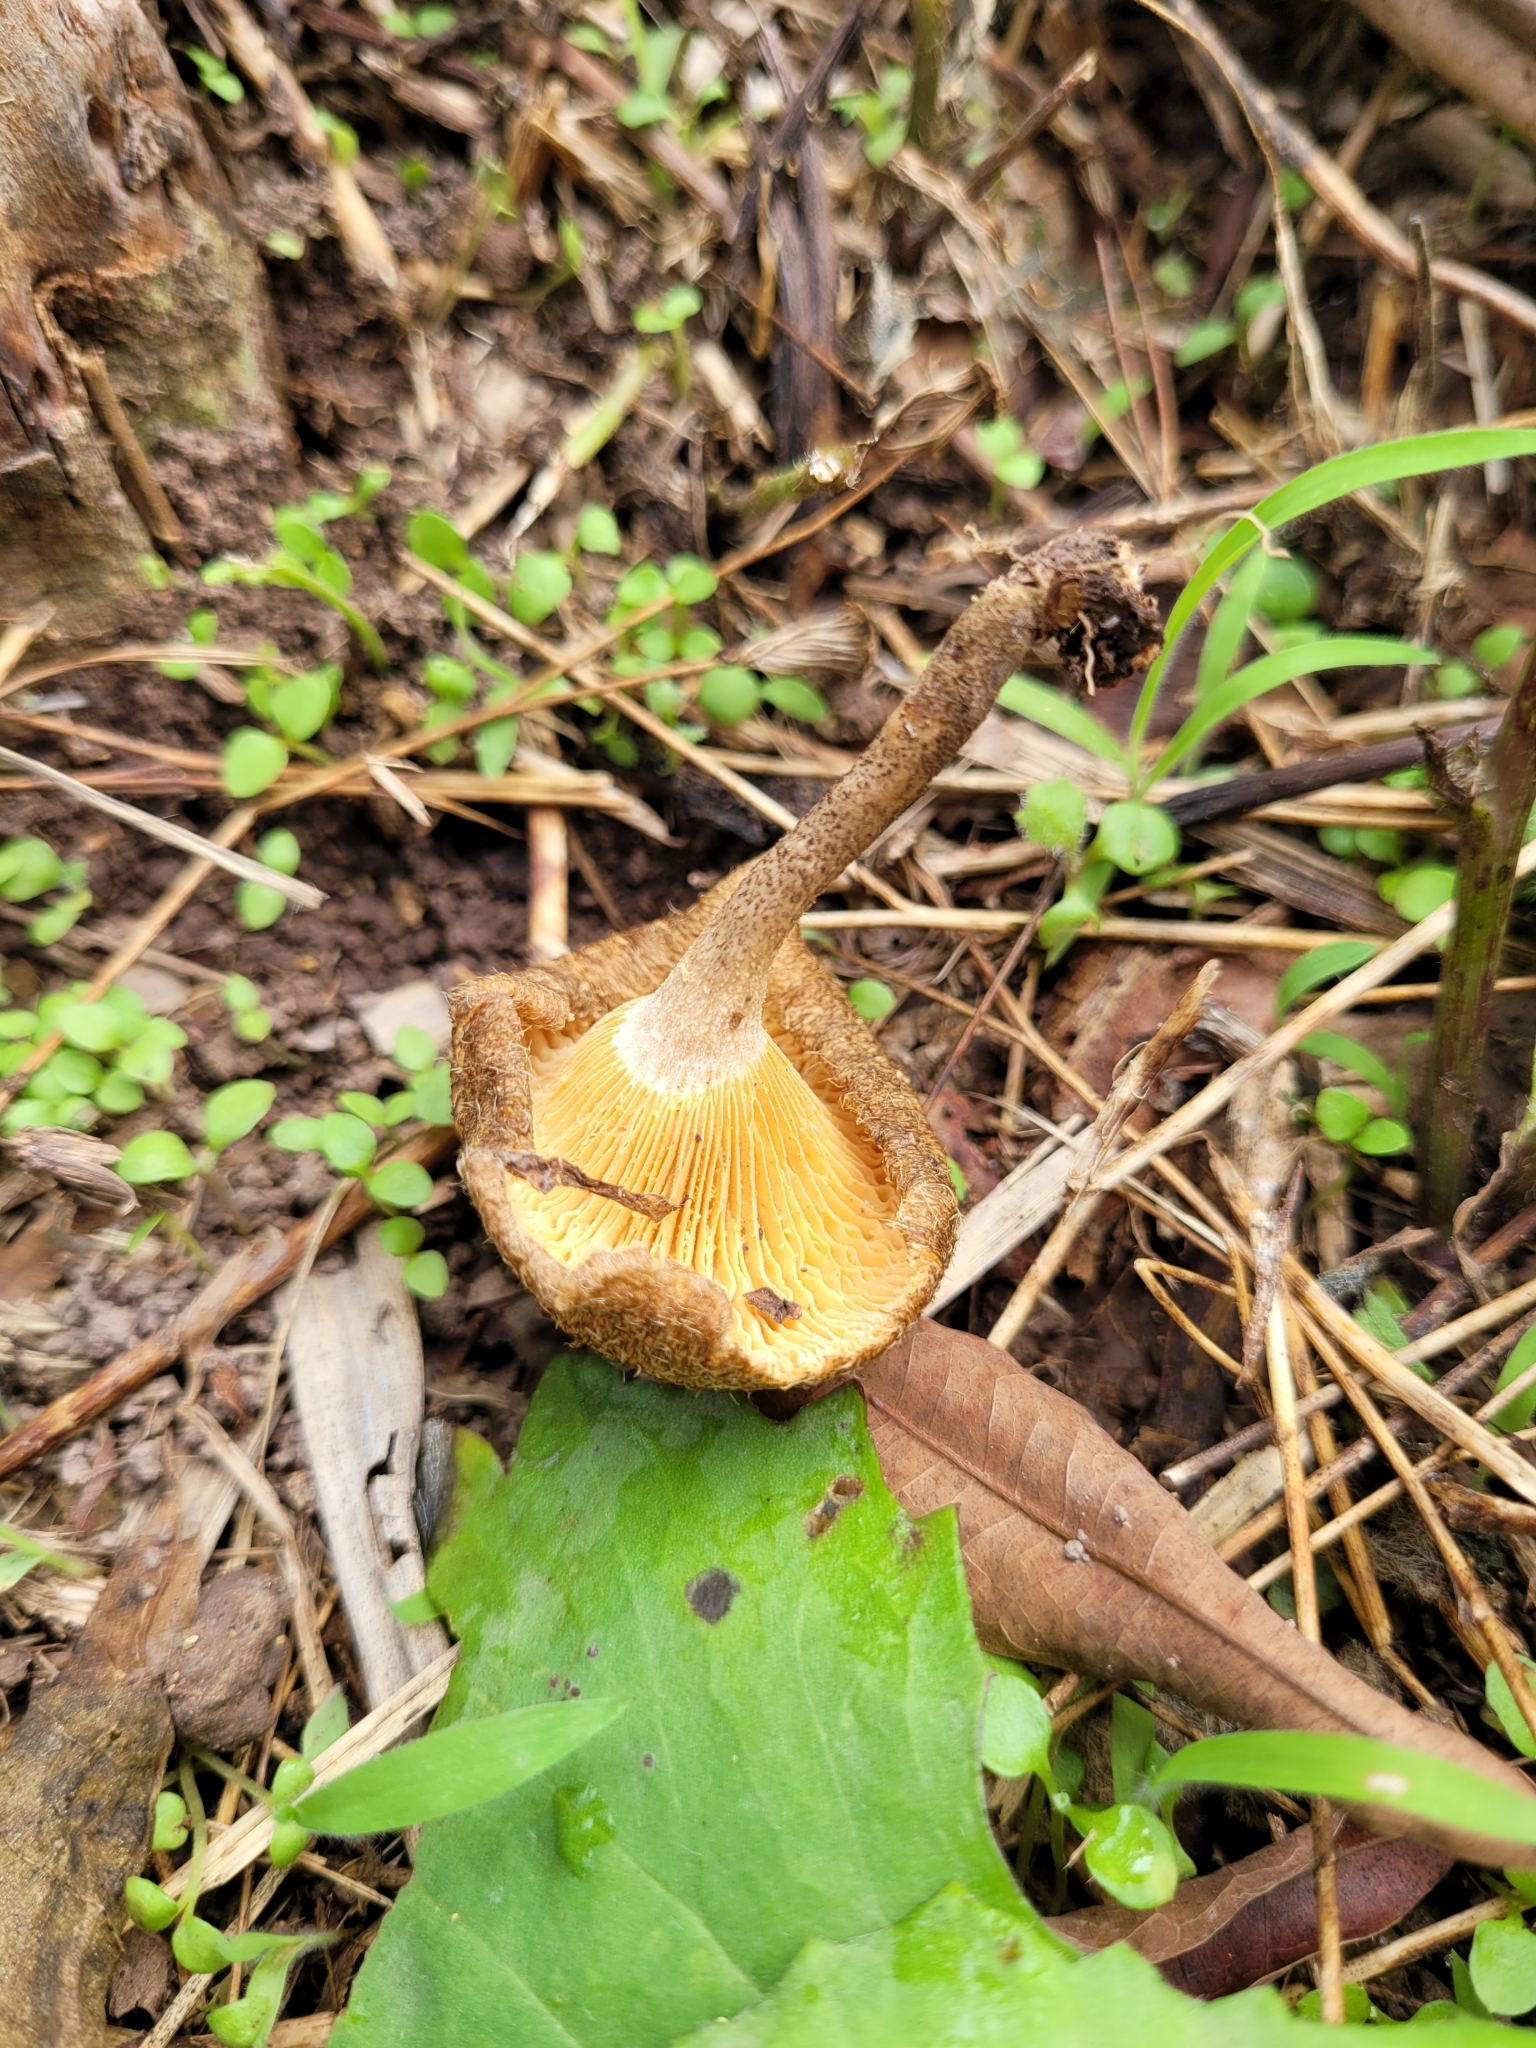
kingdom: Fungi
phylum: Basidiomycota
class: Agaricomycetes
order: Polyporales
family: Polyporaceae
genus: Lentinus
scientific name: Lentinus crinitus
